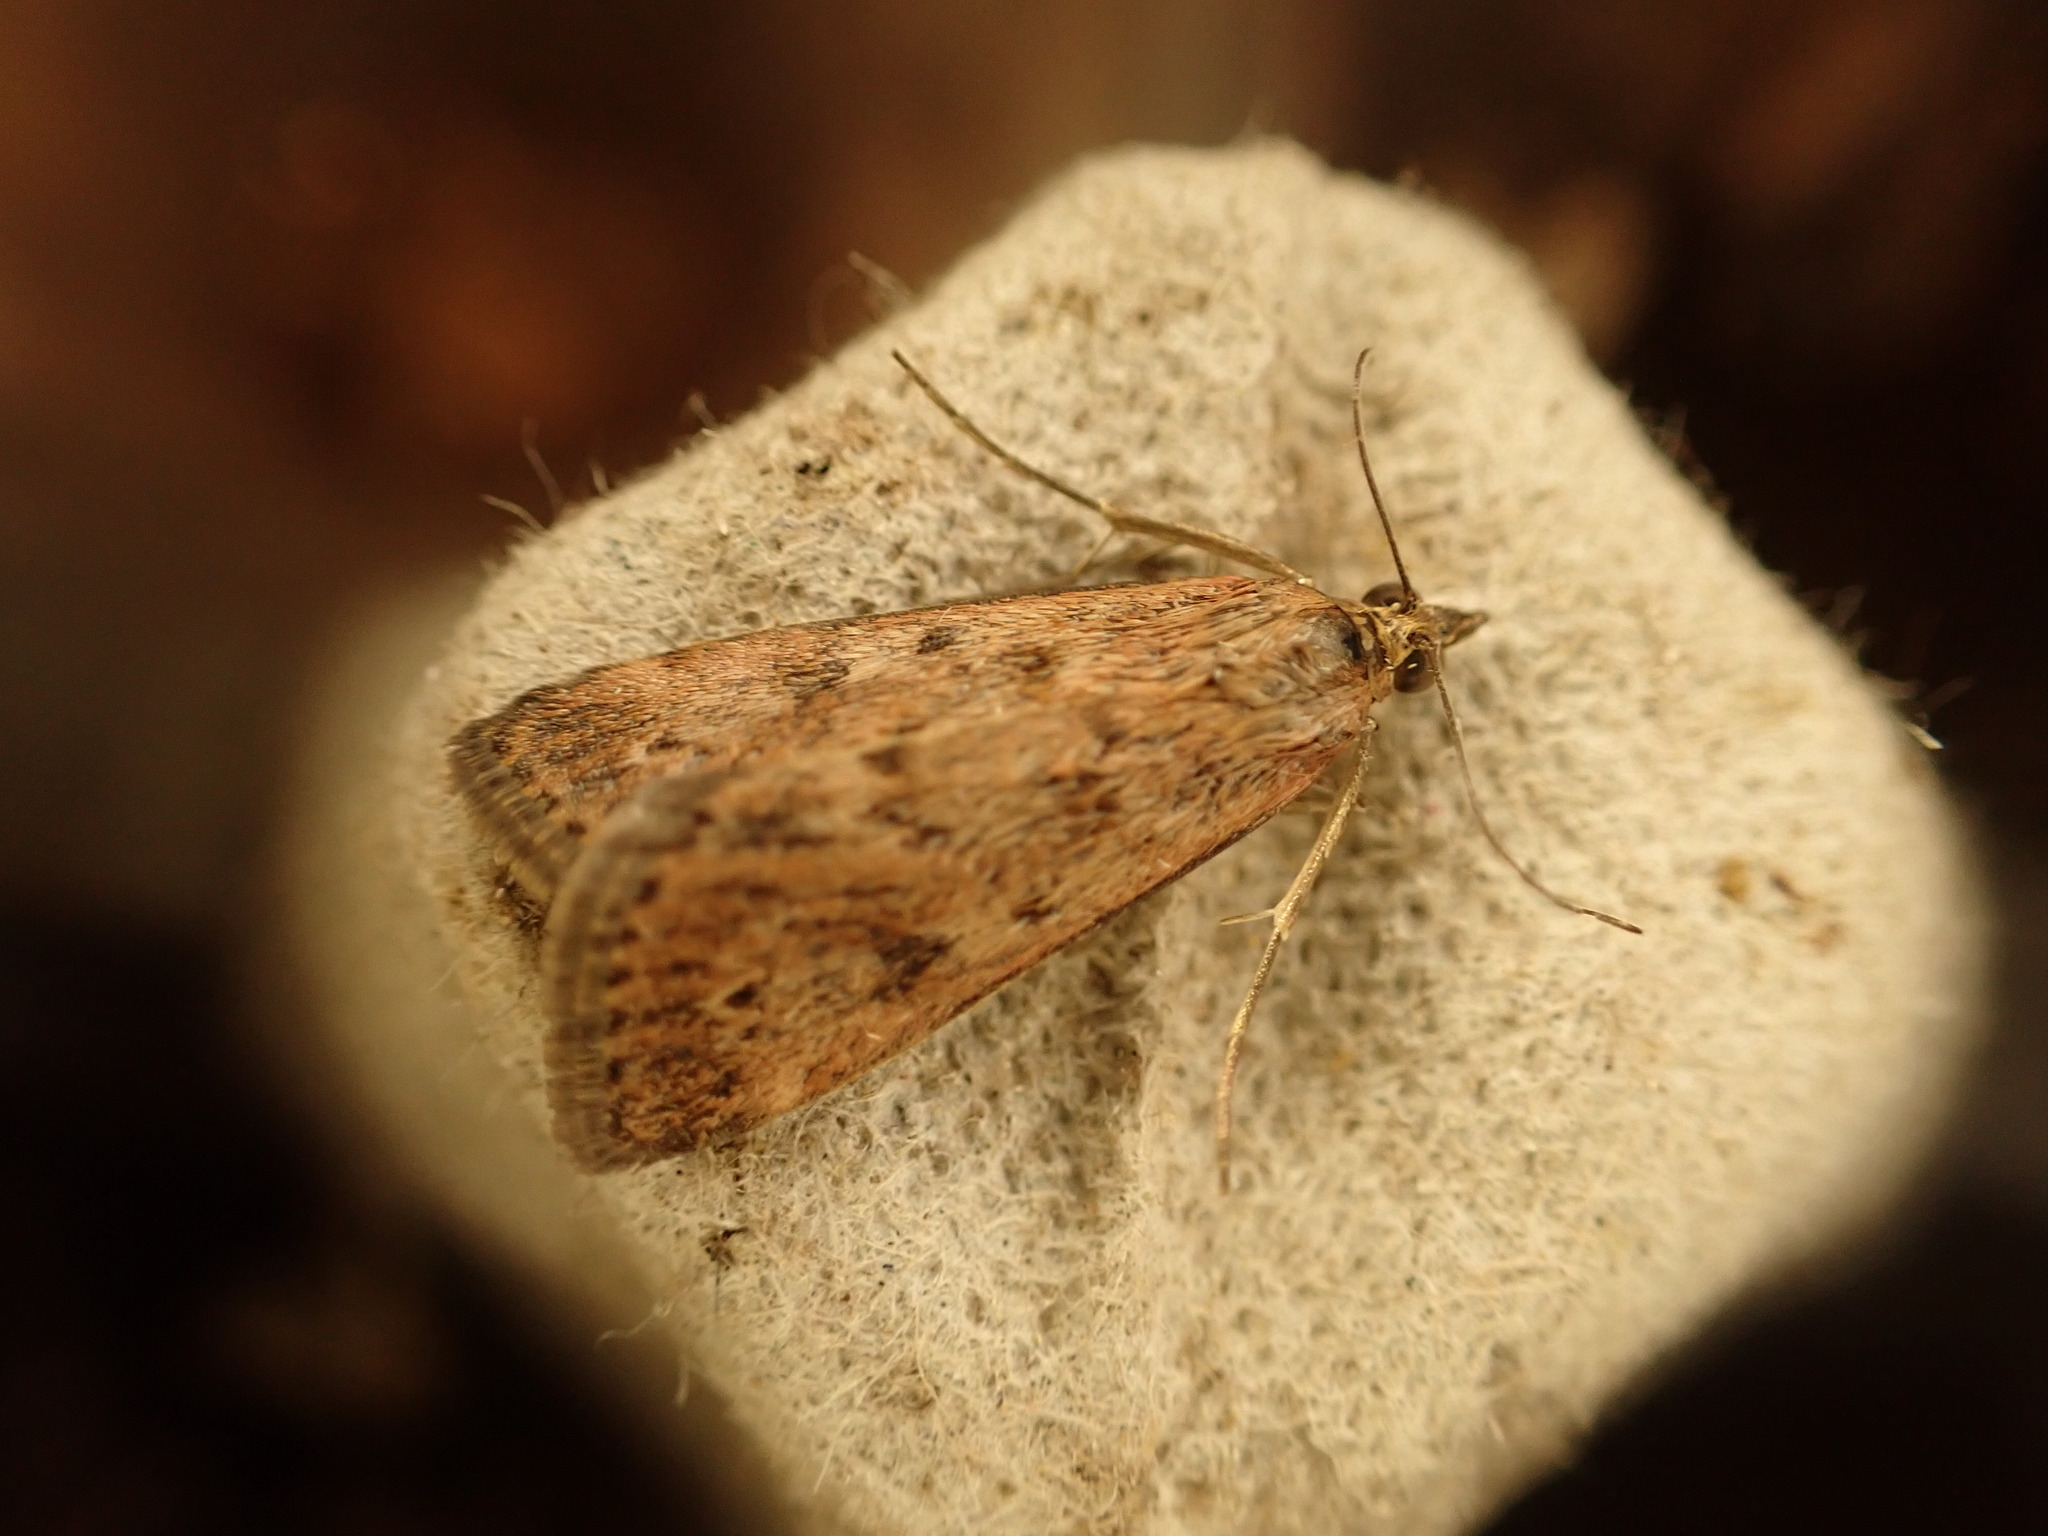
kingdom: Animalia
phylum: Arthropoda
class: Insecta
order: Lepidoptera
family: Crambidae
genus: Achyra
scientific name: Achyra affinitalis
